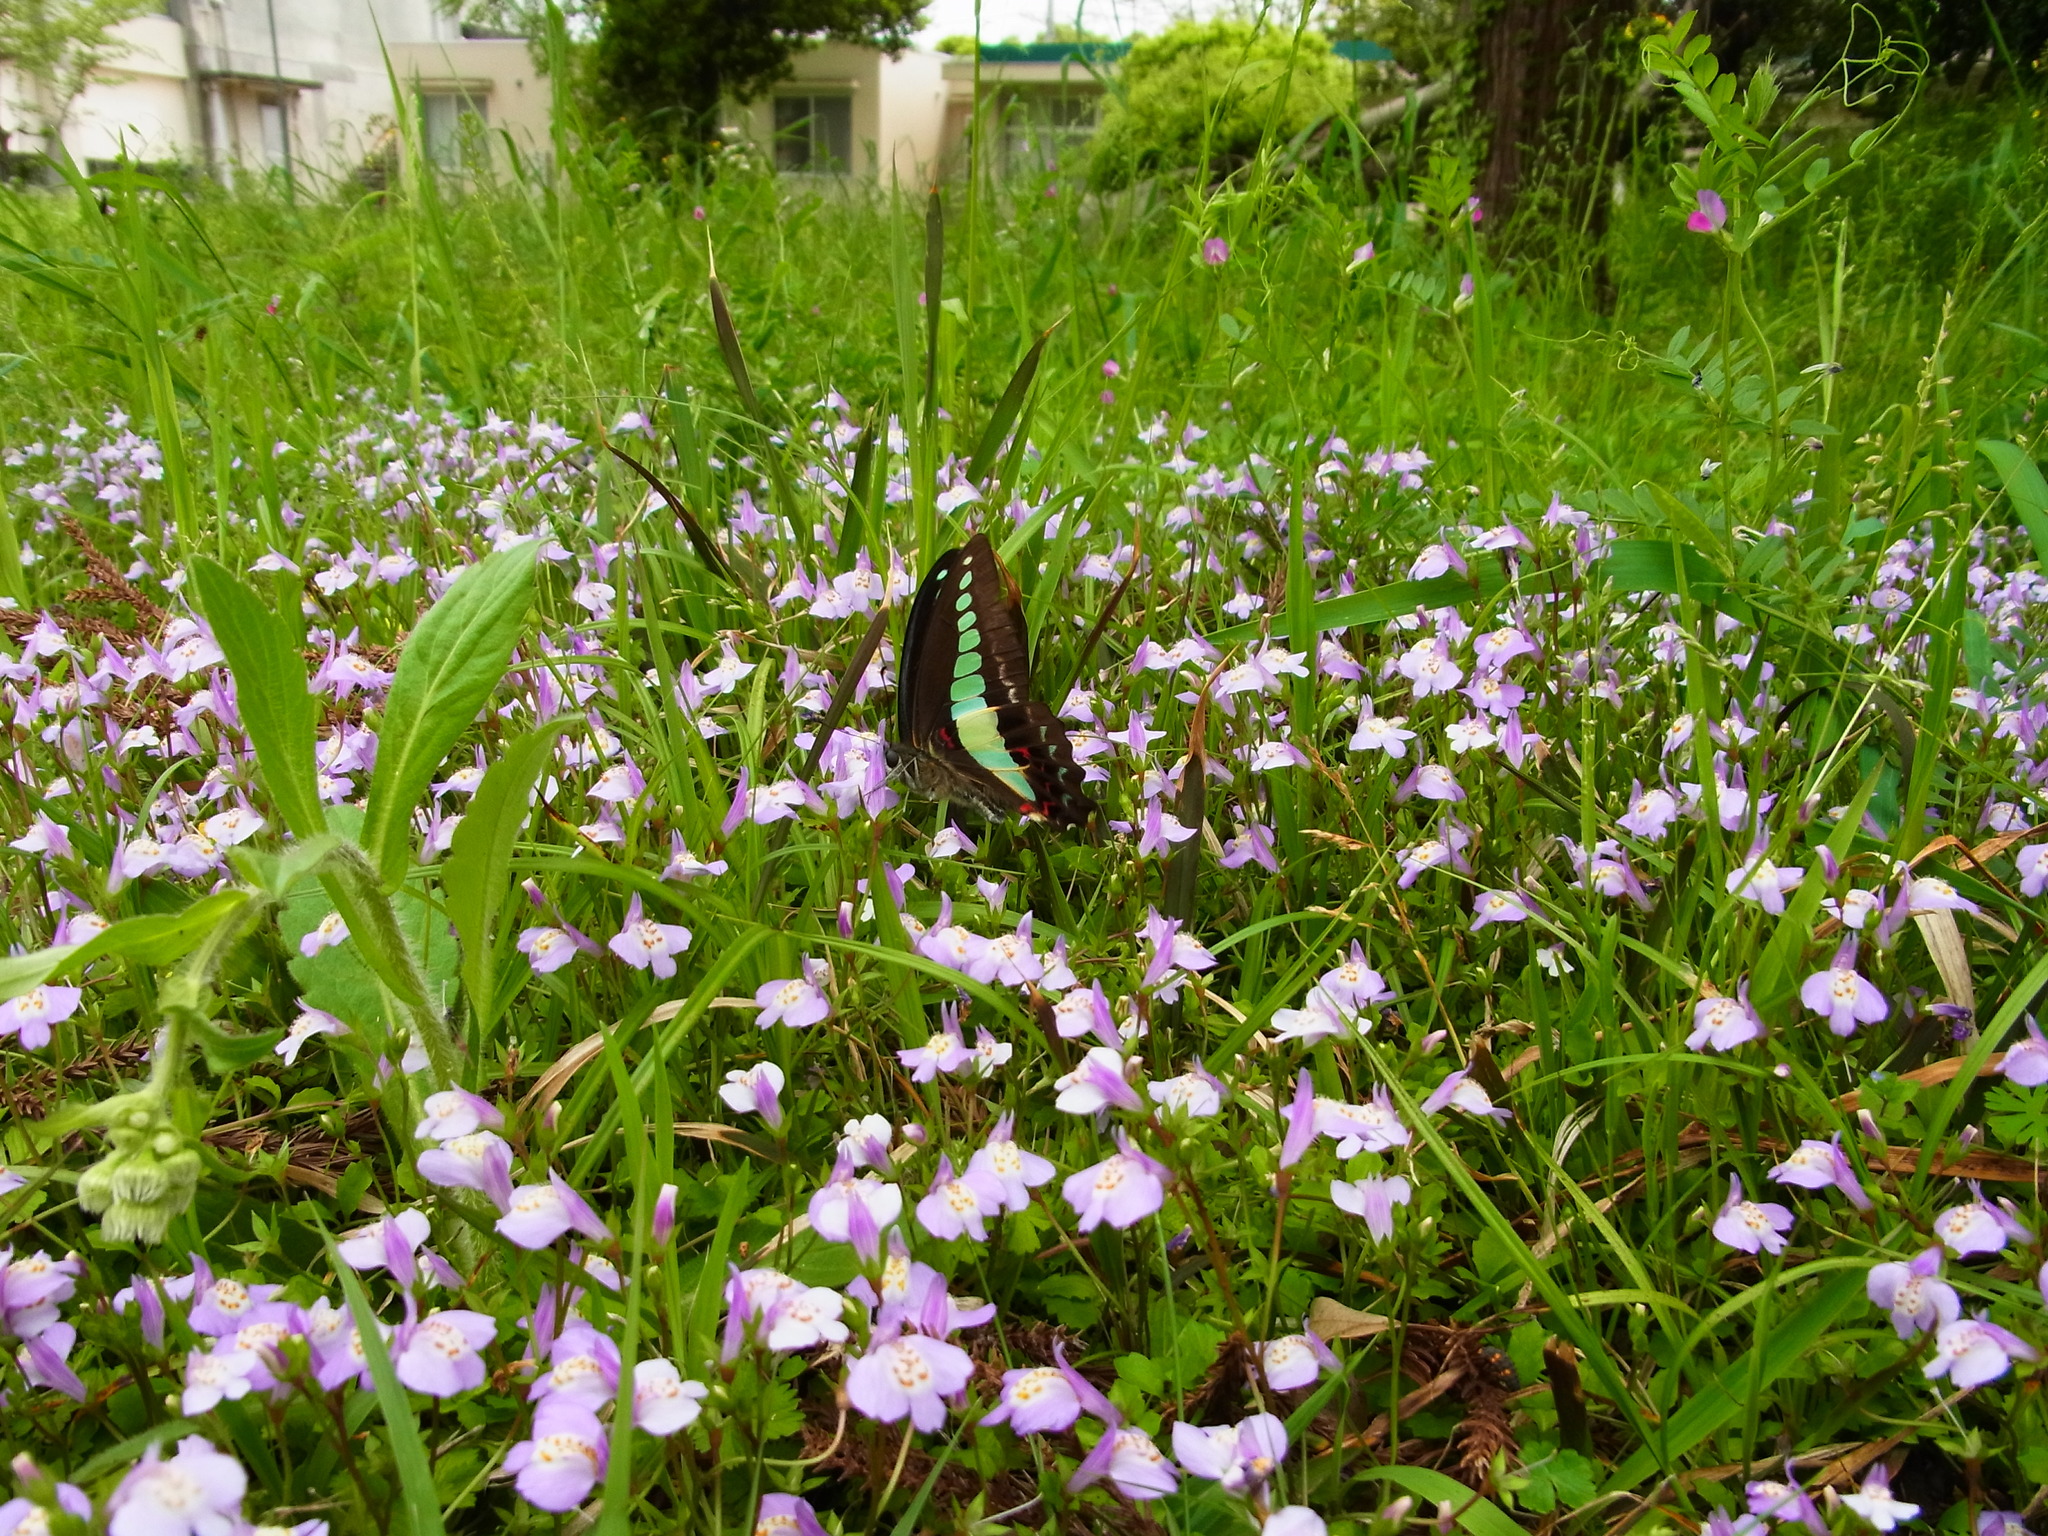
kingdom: Fungi
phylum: Ascomycota
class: Sordariomycetes
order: Microascales
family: Microascaceae
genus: Graphium
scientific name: Graphium sarpedon
